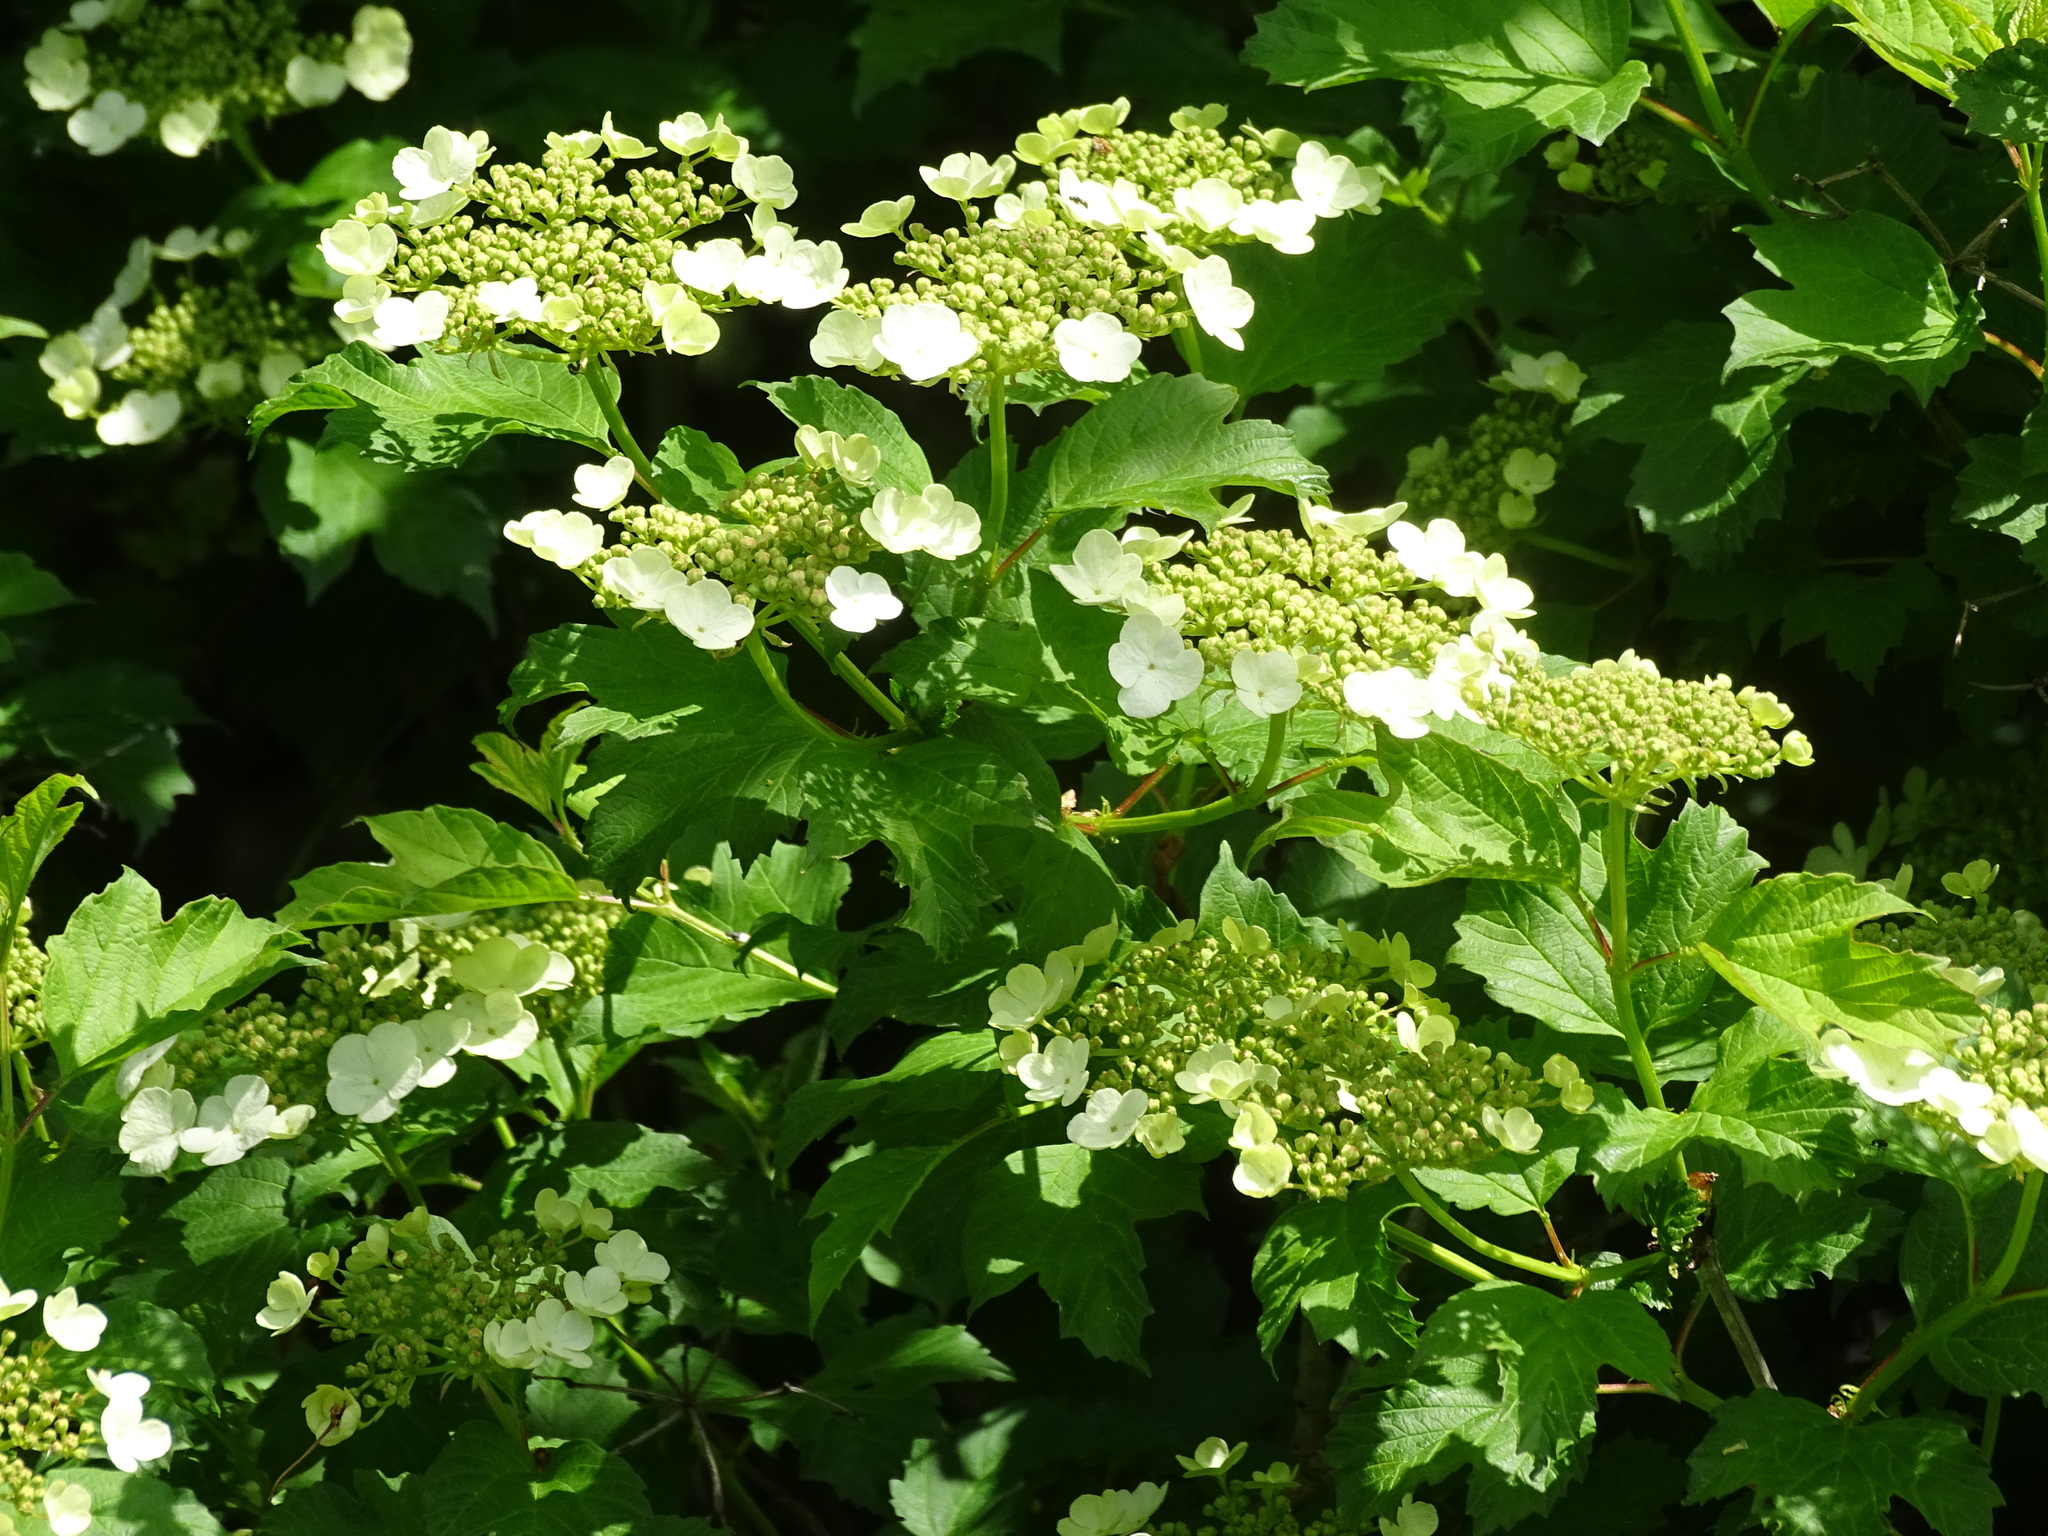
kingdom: Plantae
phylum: Tracheophyta
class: Magnoliopsida
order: Dipsacales
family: Viburnaceae
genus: Viburnum
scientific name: Viburnum opulus
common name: Guelder-rose
